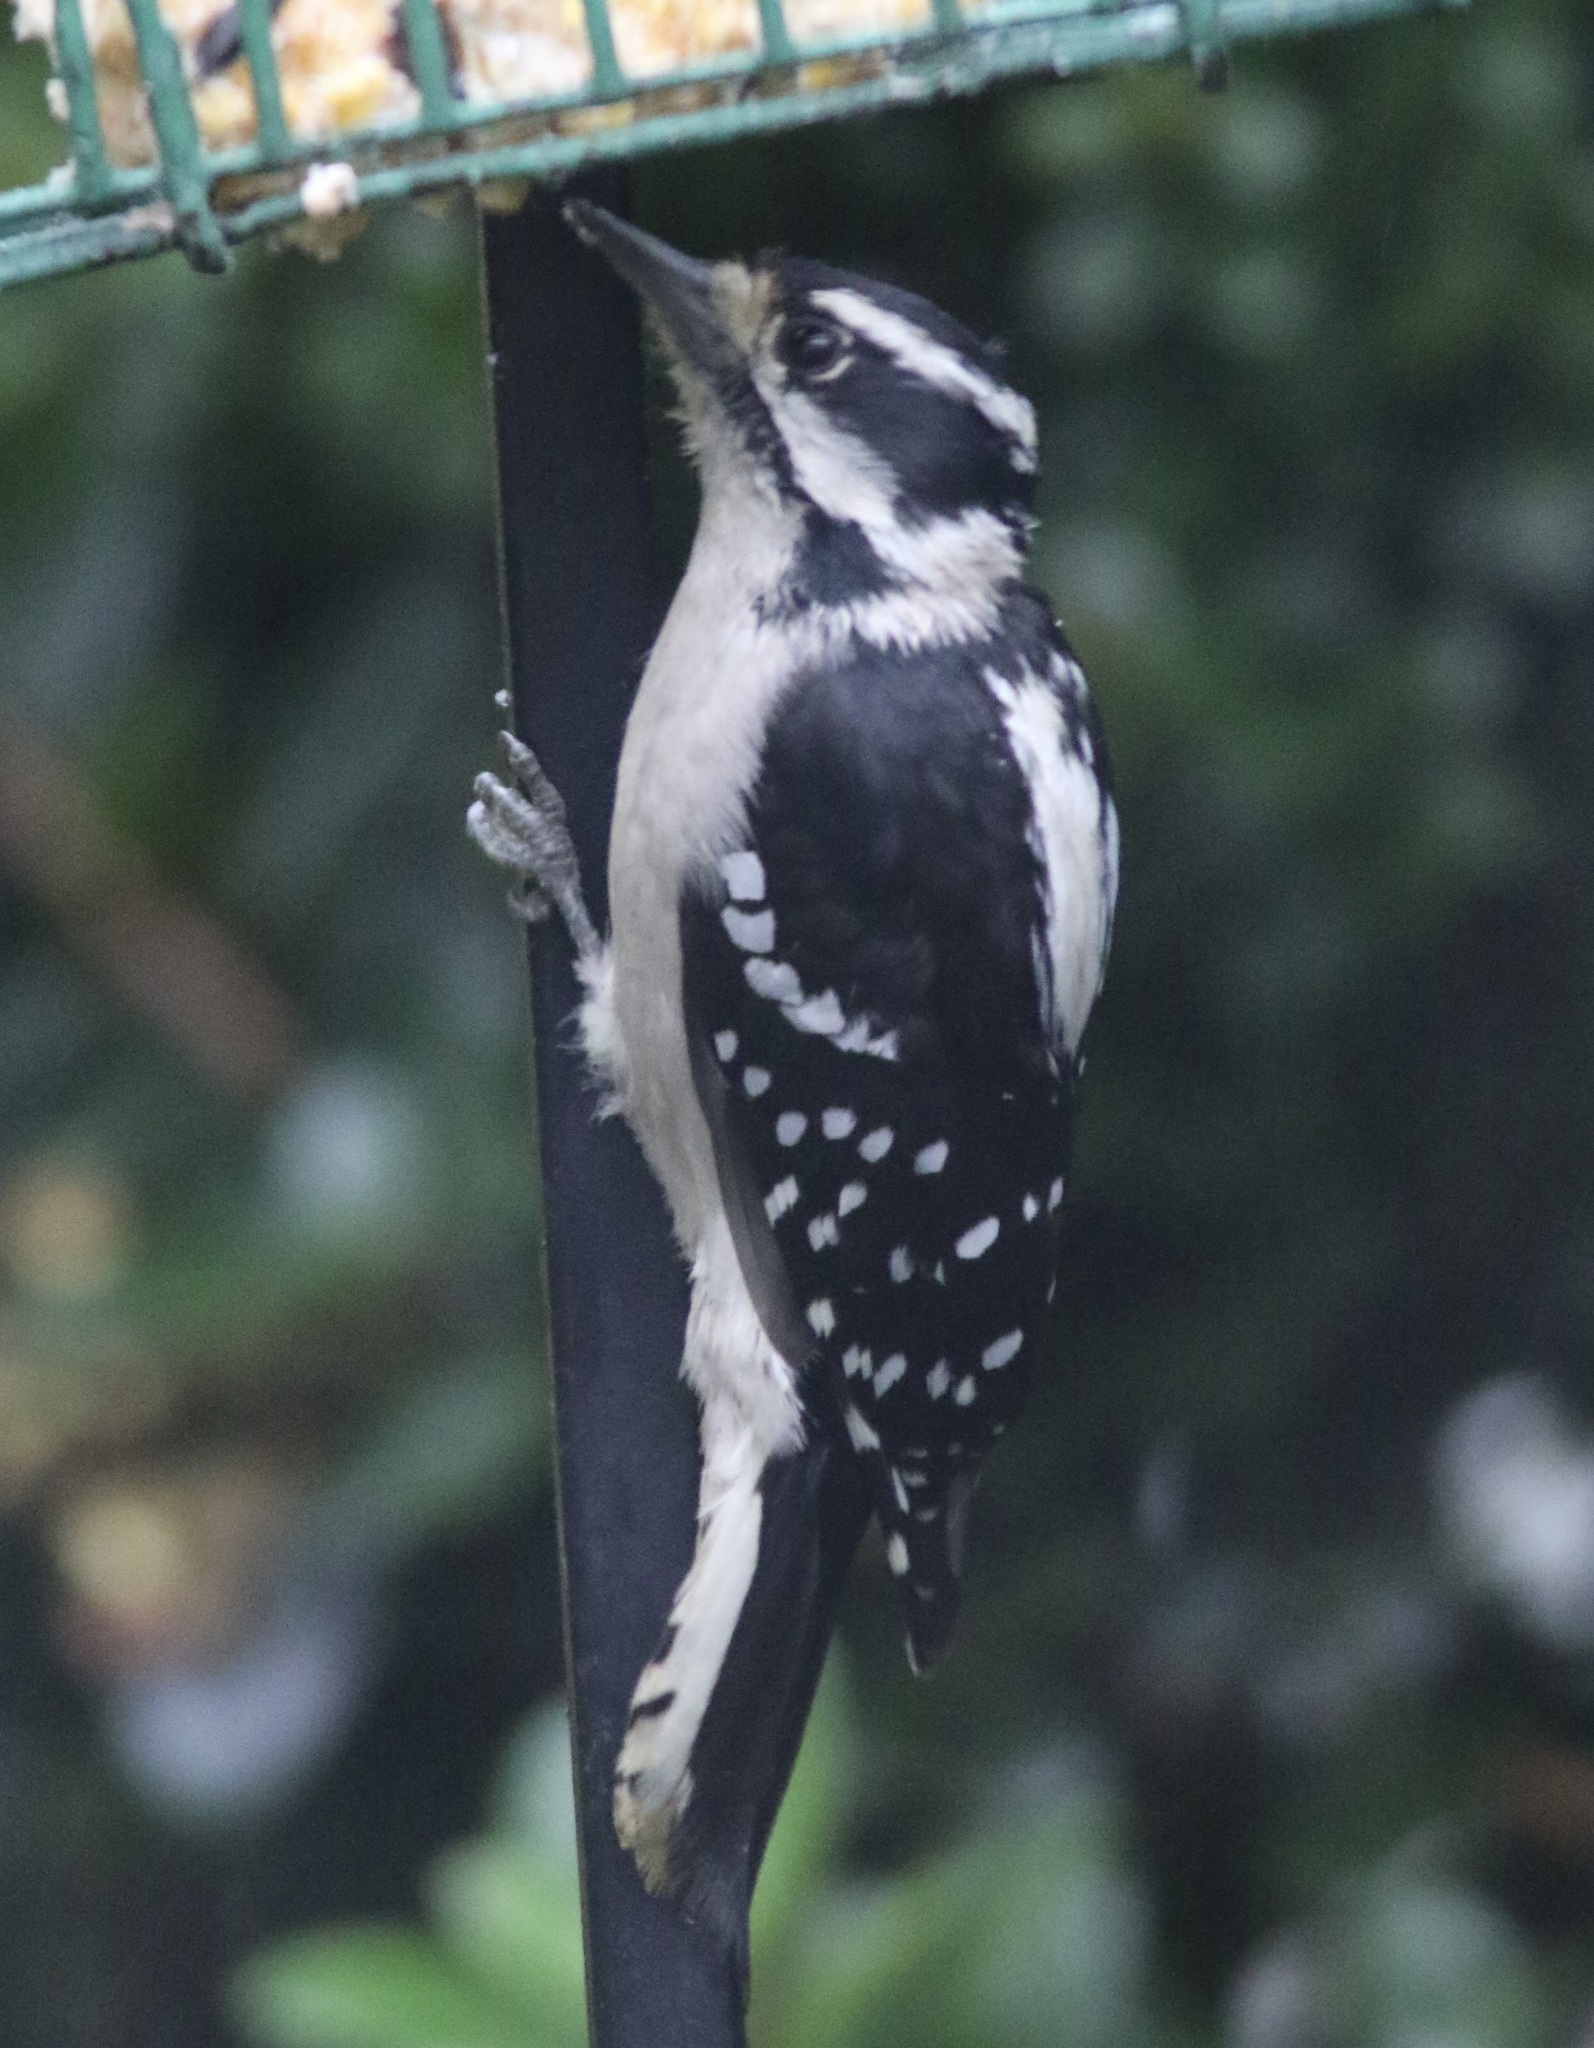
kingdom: Animalia
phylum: Chordata
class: Aves
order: Piciformes
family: Picidae
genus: Dryobates
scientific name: Dryobates pubescens
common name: Downy woodpecker
